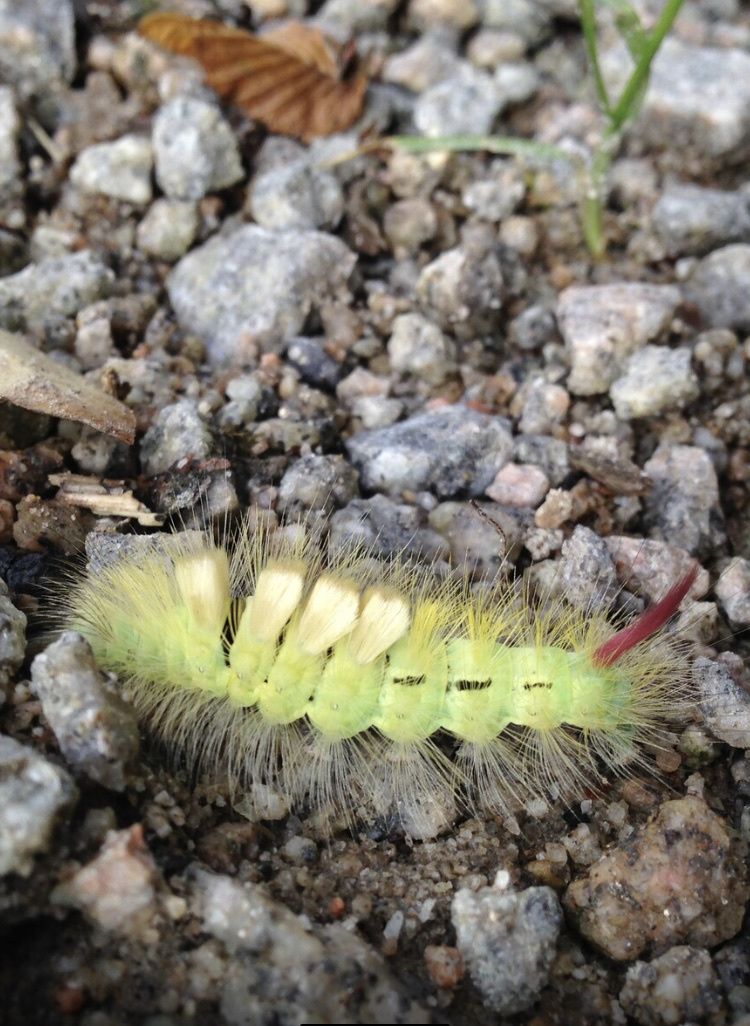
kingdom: Animalia
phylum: Arthropoda
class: Insecta
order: Lepidoptera
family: Erebidae
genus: Calliteara
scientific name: Calliteara pudibunda
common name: Pale tussock
